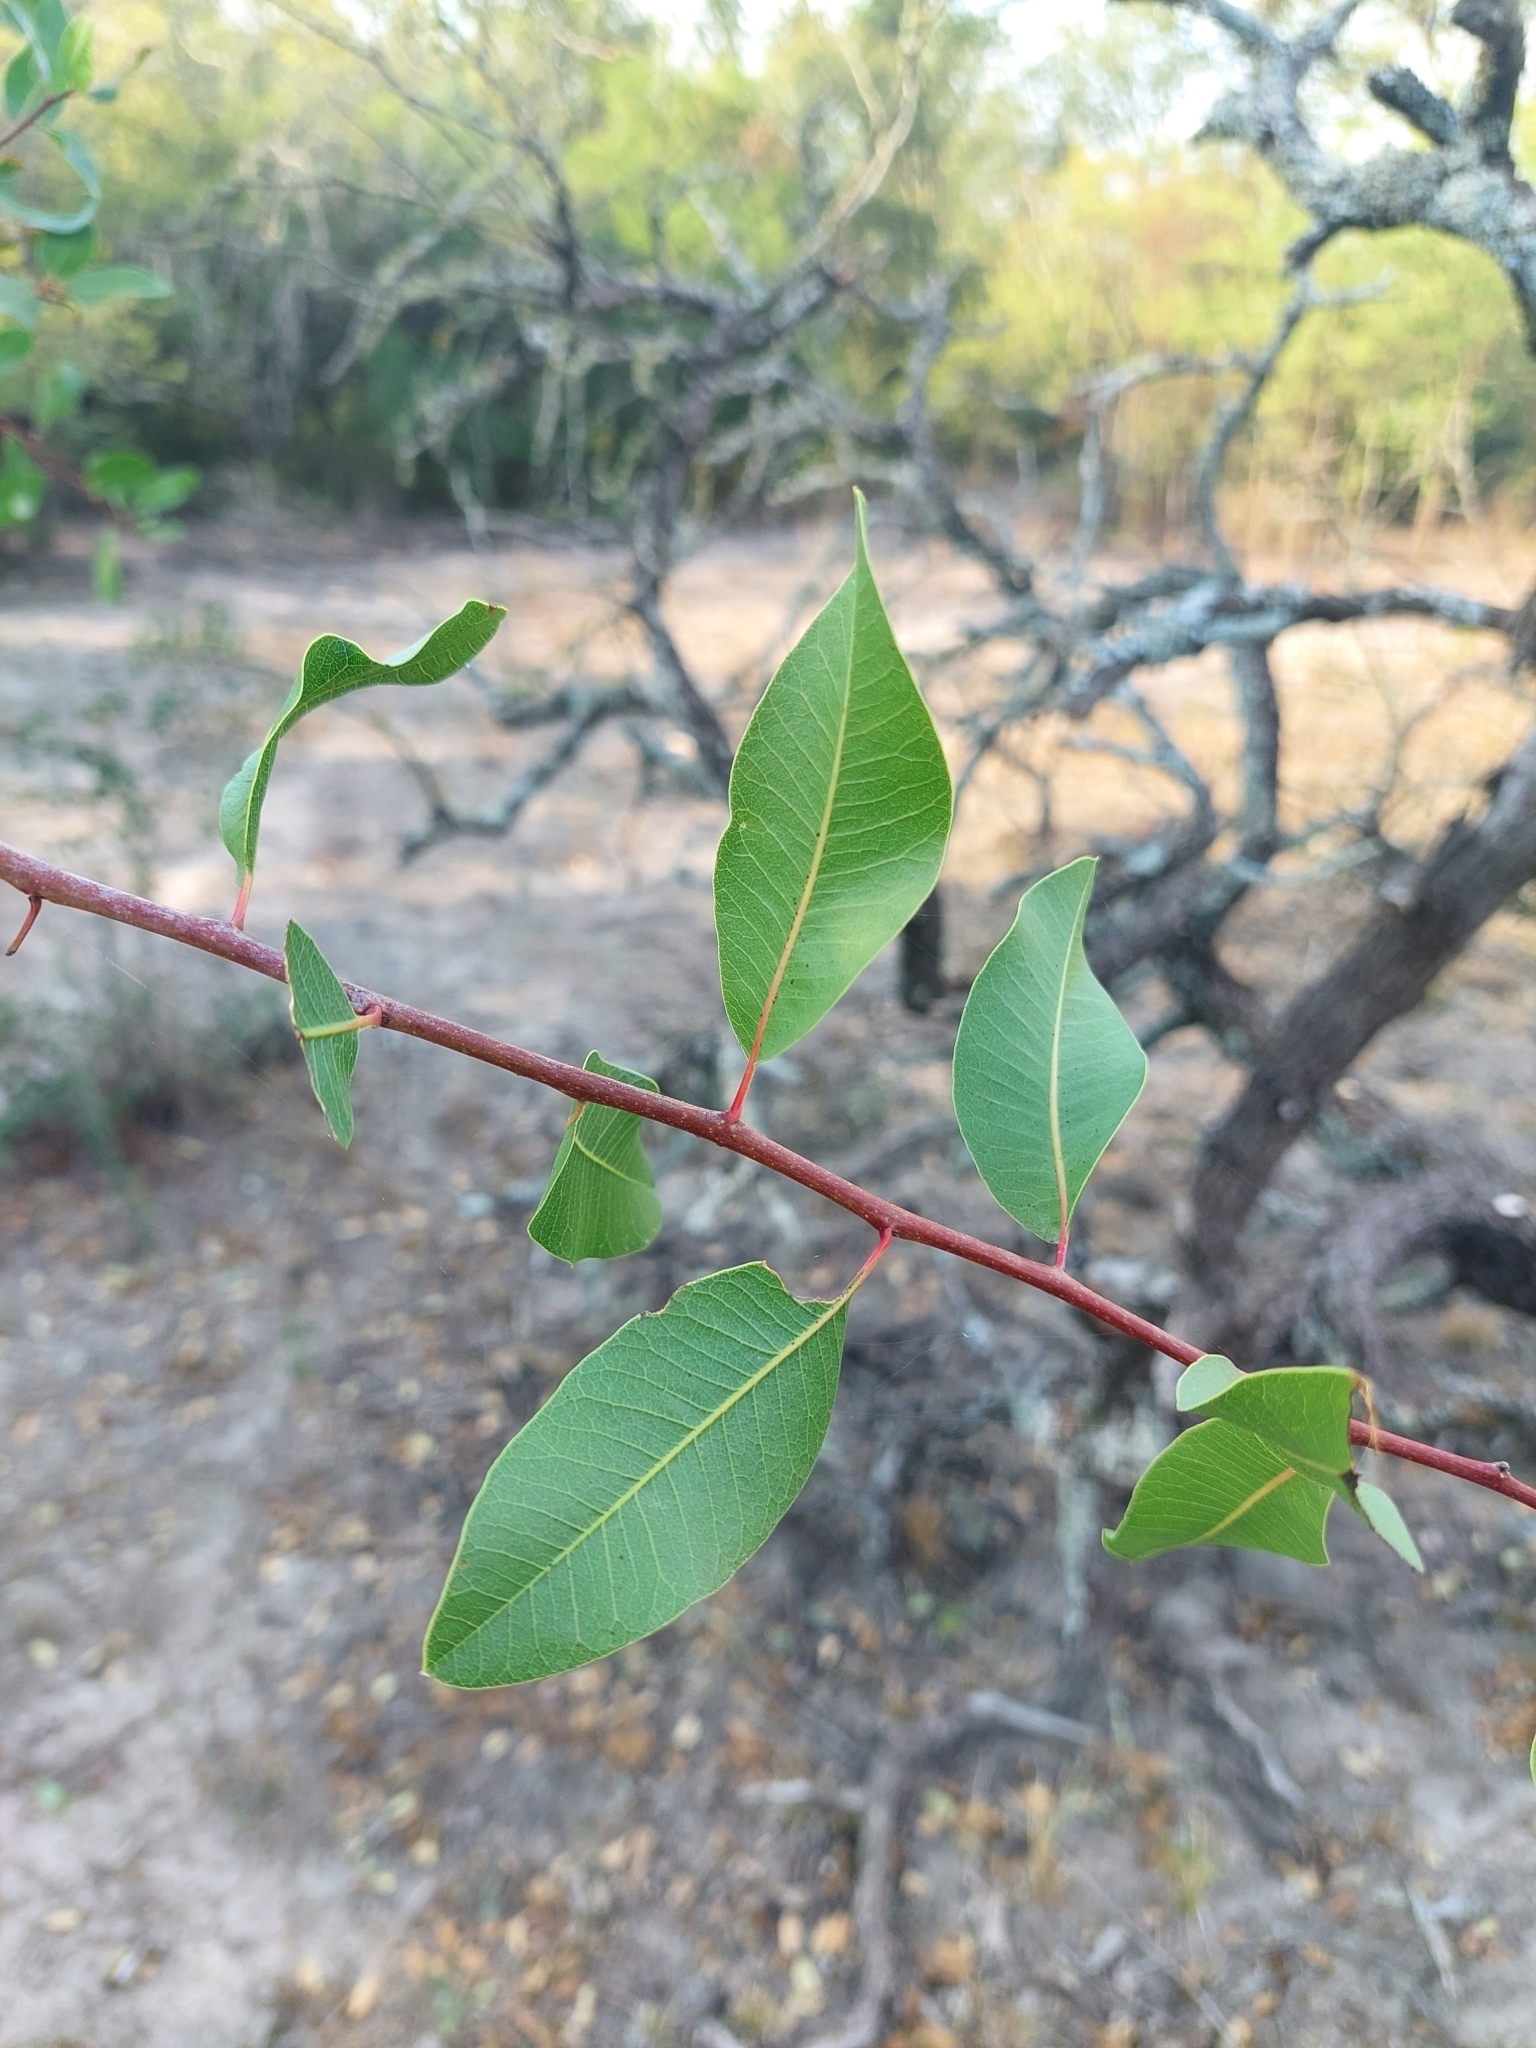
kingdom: Plantae
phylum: Tracheophyta
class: Magnoliopsida
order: Sapindales
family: Anacardiaceae
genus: Schinopsis
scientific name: Schinopsis balansae
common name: Red quebracho
